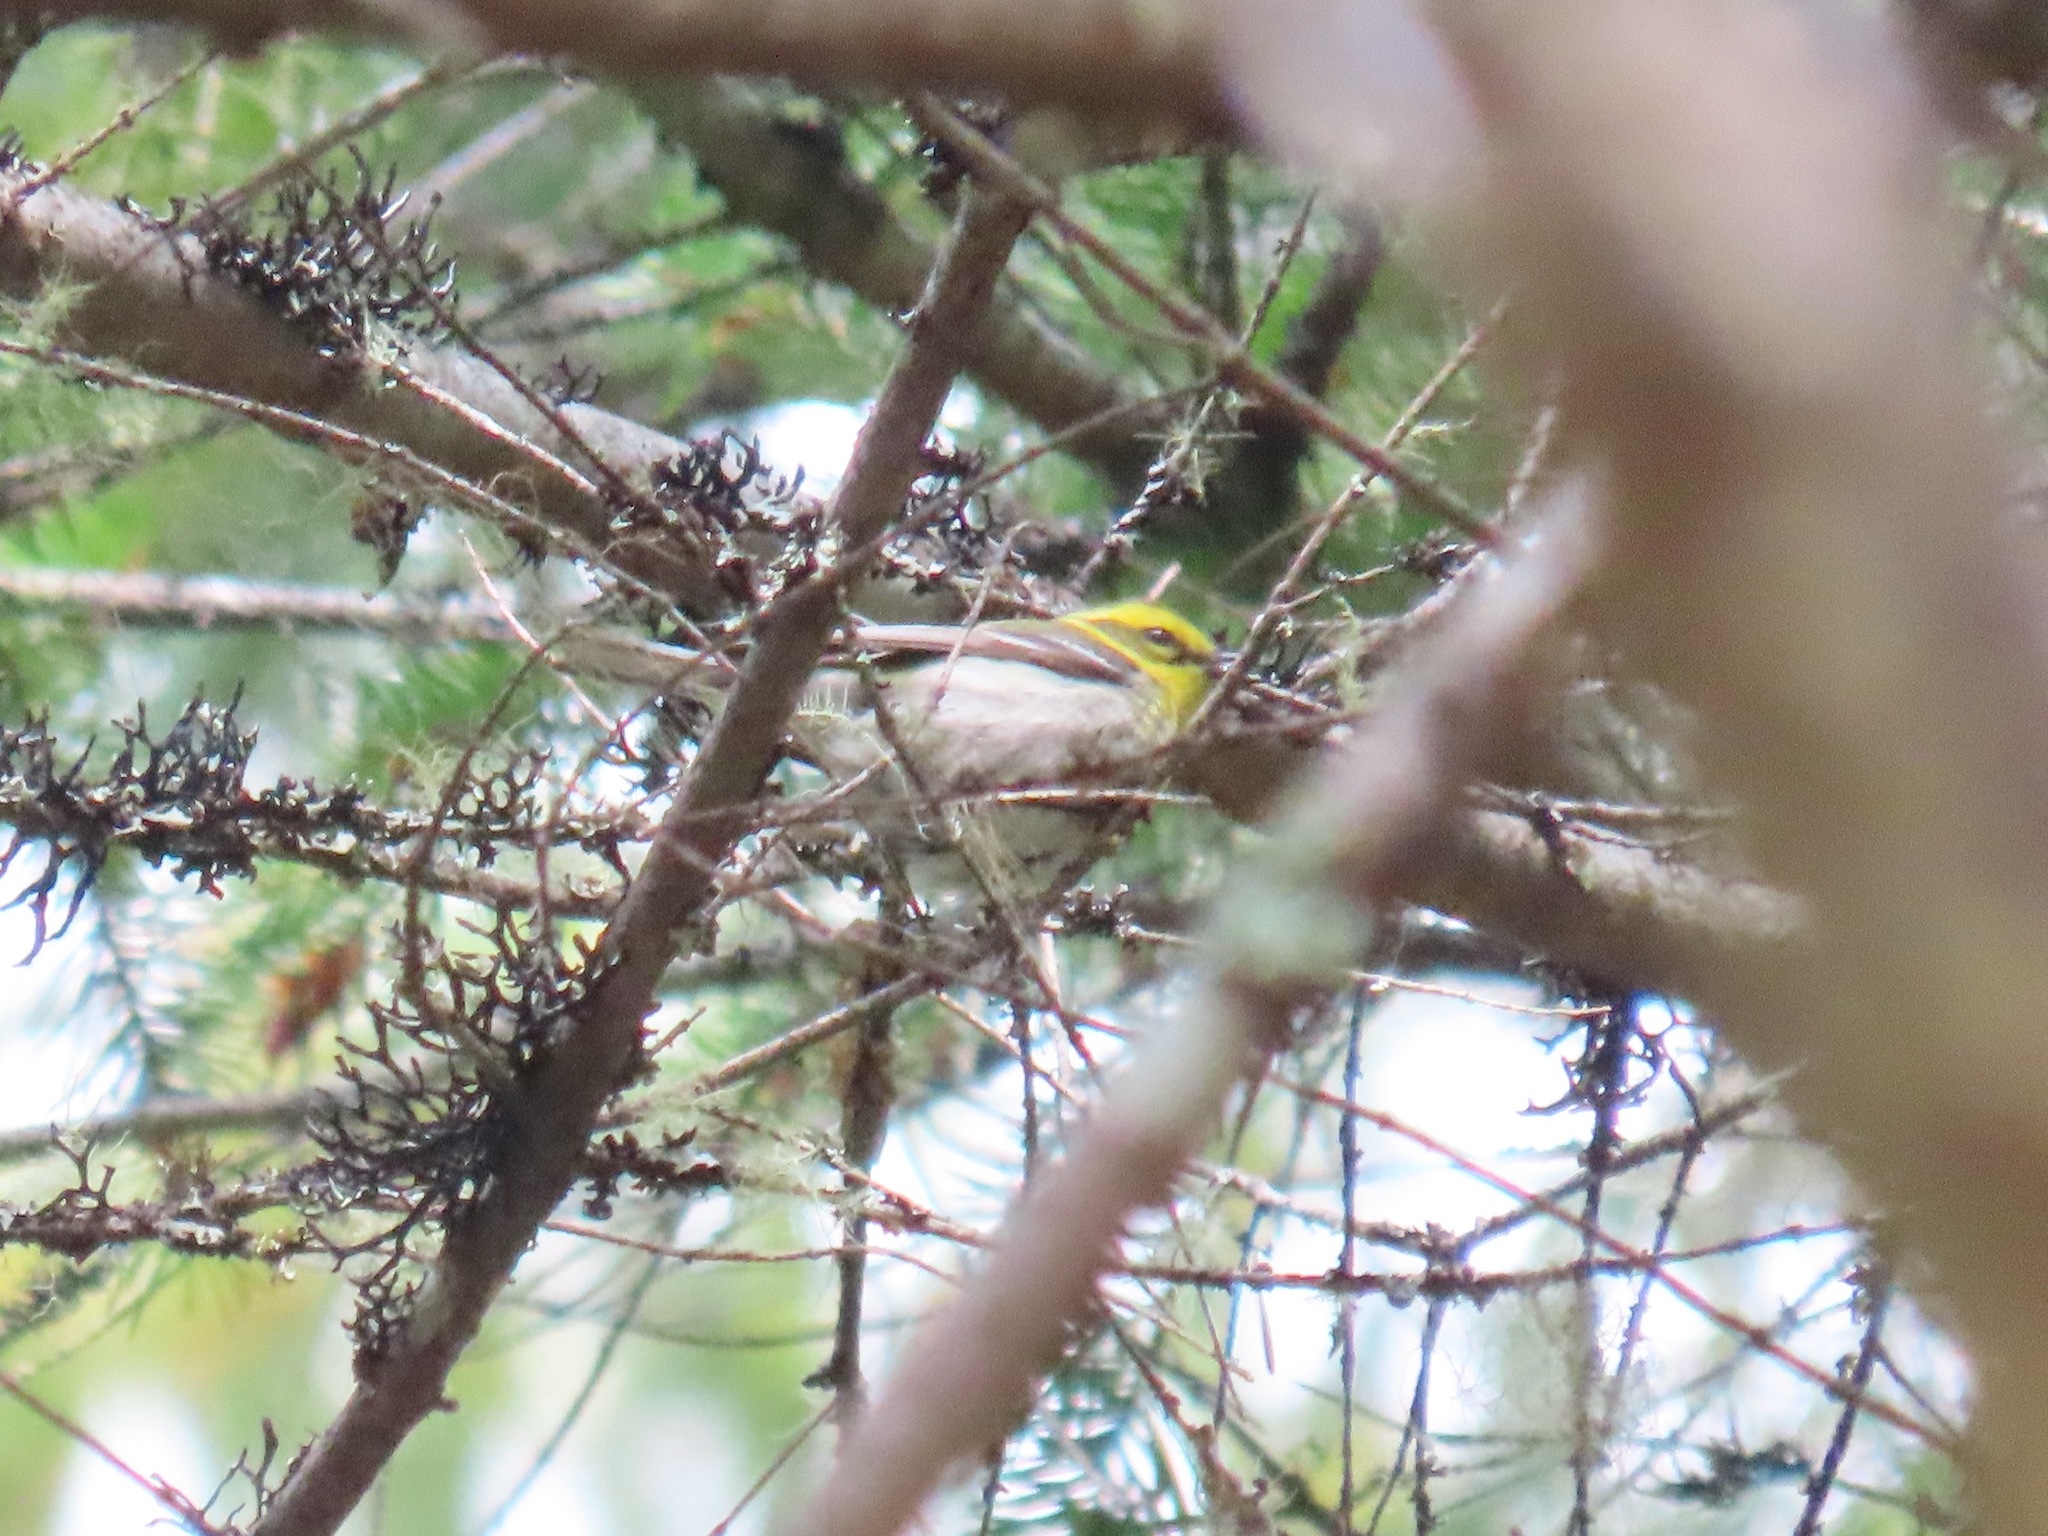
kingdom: Animalia
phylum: Chordata
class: Aves
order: Passeriformes
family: Parulidae
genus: Setophaga
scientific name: Setophaga townsendi
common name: Townsend's warbler
